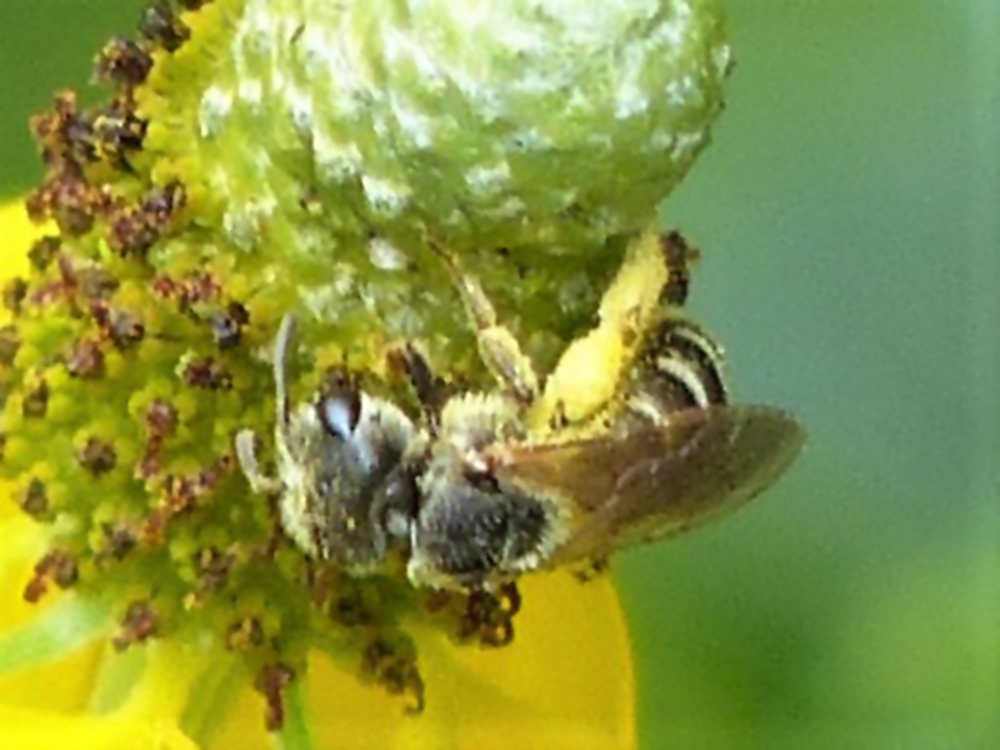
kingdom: Animalia
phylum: Arthropoda
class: Insecta
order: Hymenoptera
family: Halictidae
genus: Halictus
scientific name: Halictus ligatus
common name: Ligated furrow bee
